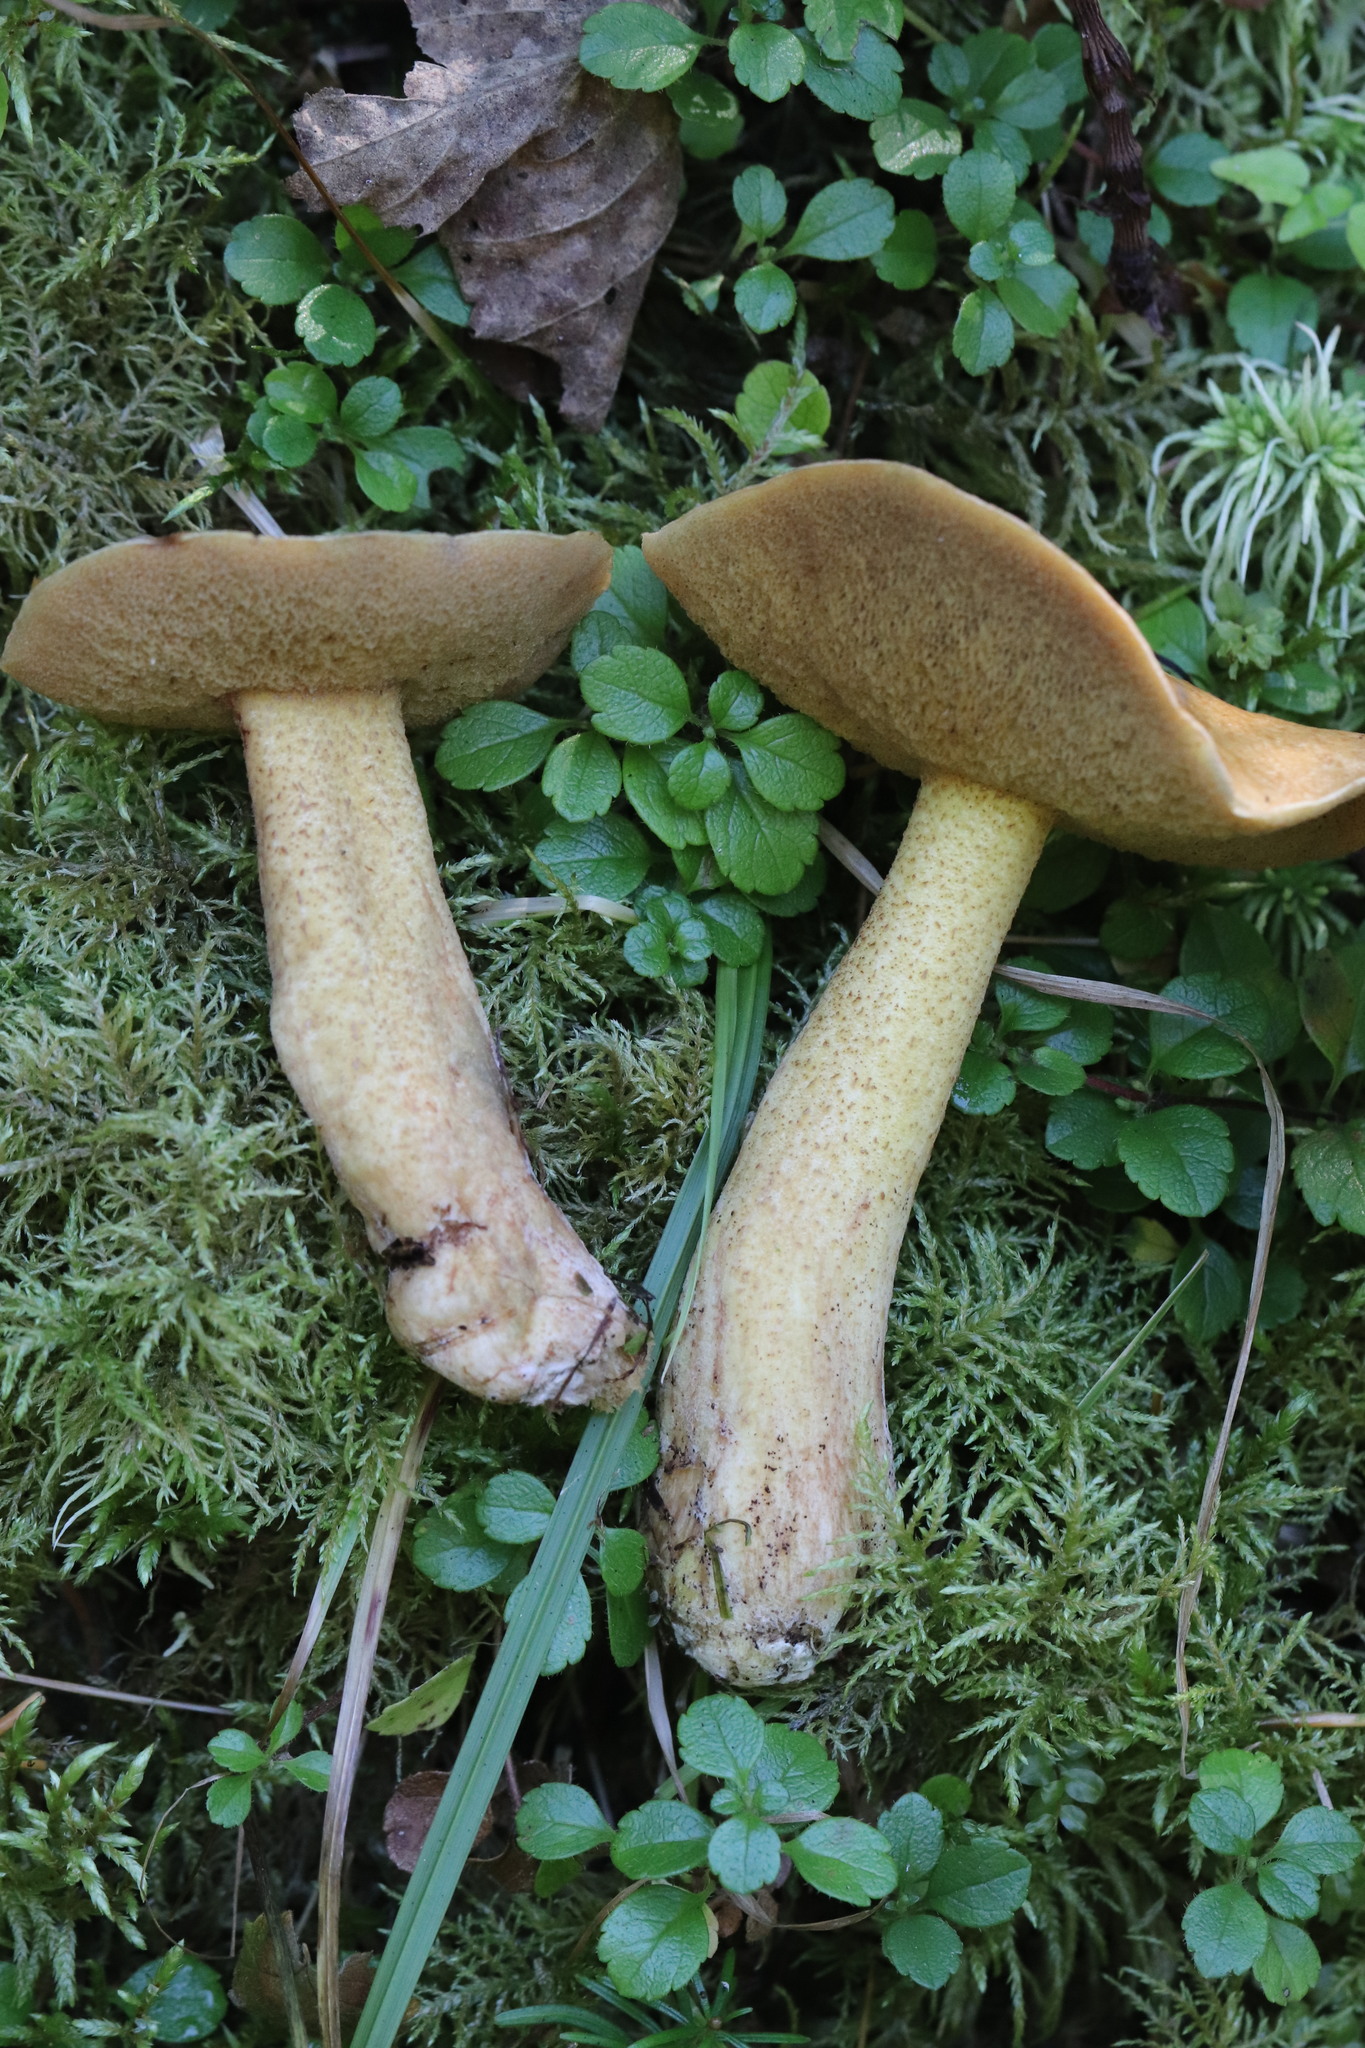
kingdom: Fungi
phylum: Basidiomycota
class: Agaricomycetes
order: Boletales
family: Suillaceae
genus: Suillus
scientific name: Suillus plorans
